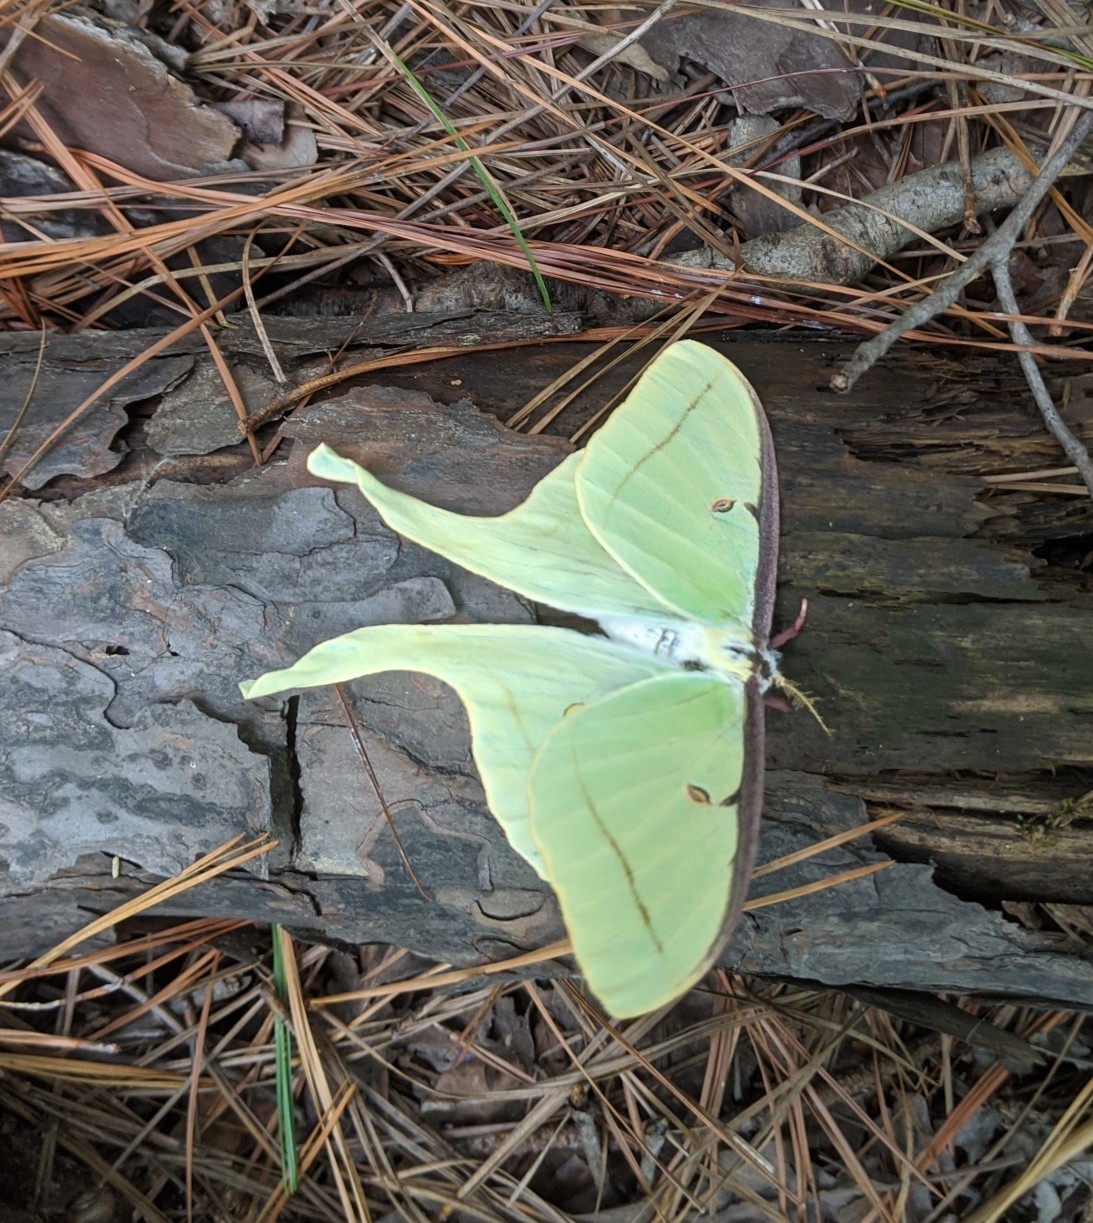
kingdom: Animalia
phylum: Arthropoda
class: Insecta
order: Lepidoptera
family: Saturniidae
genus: Actias
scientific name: Actias luna
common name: Luna moth
